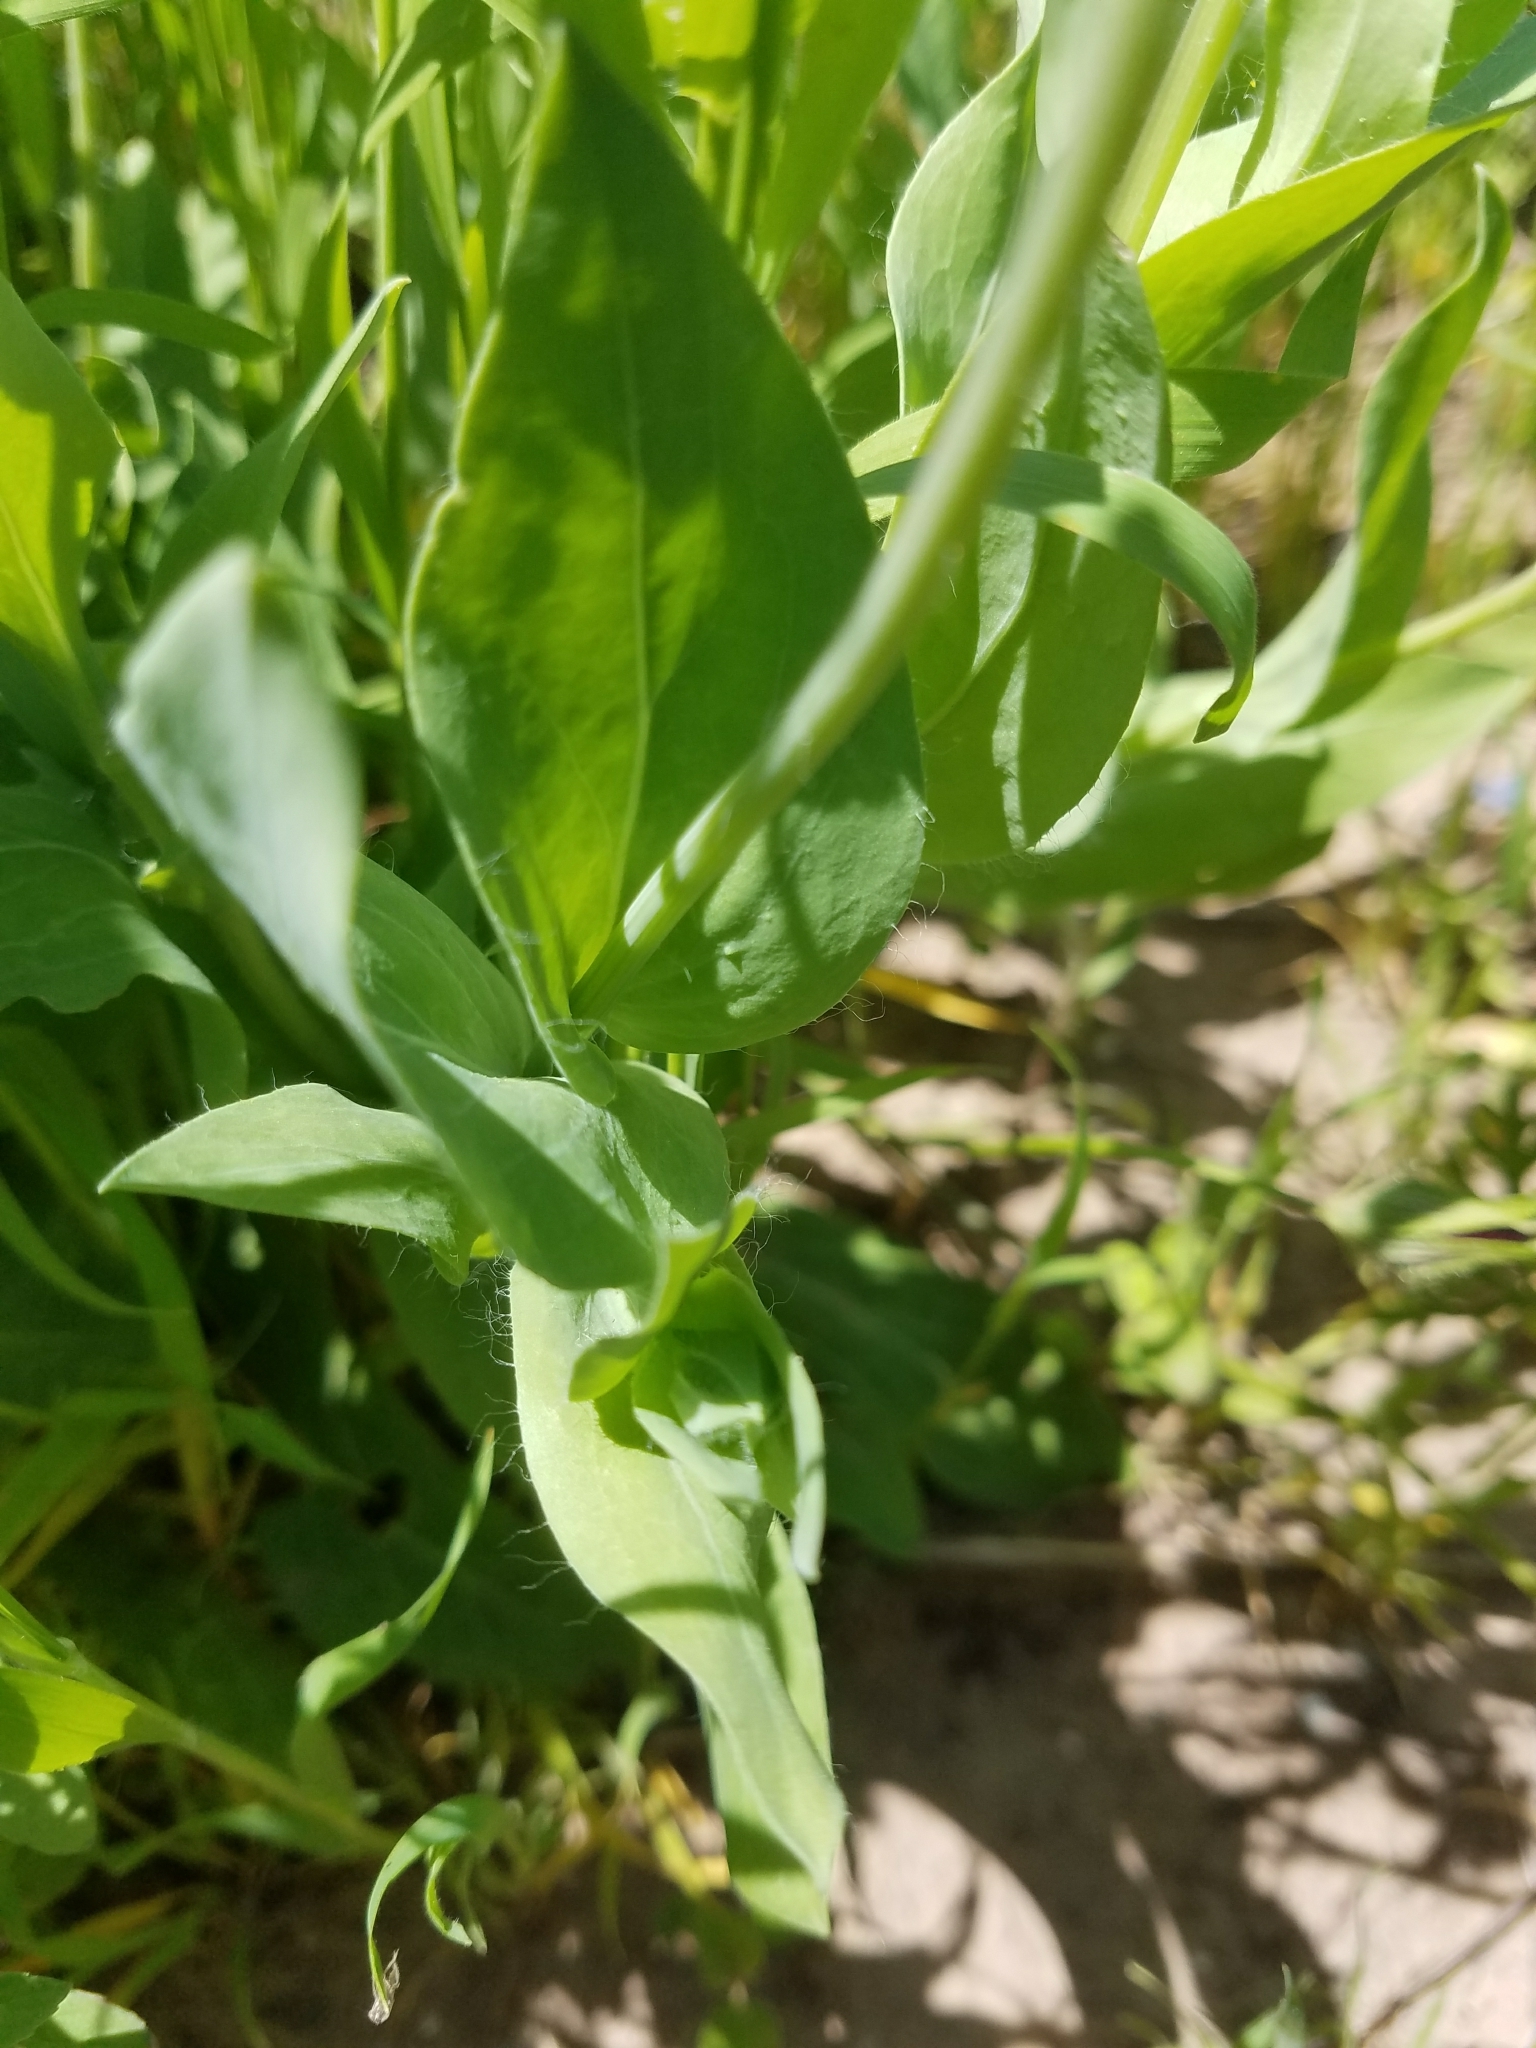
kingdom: Plantae
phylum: Tracheophyta
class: Magnoliopsida
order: Asterales
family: Asteraceae
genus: Amblyolepis
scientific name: Amblyolepis setigera
